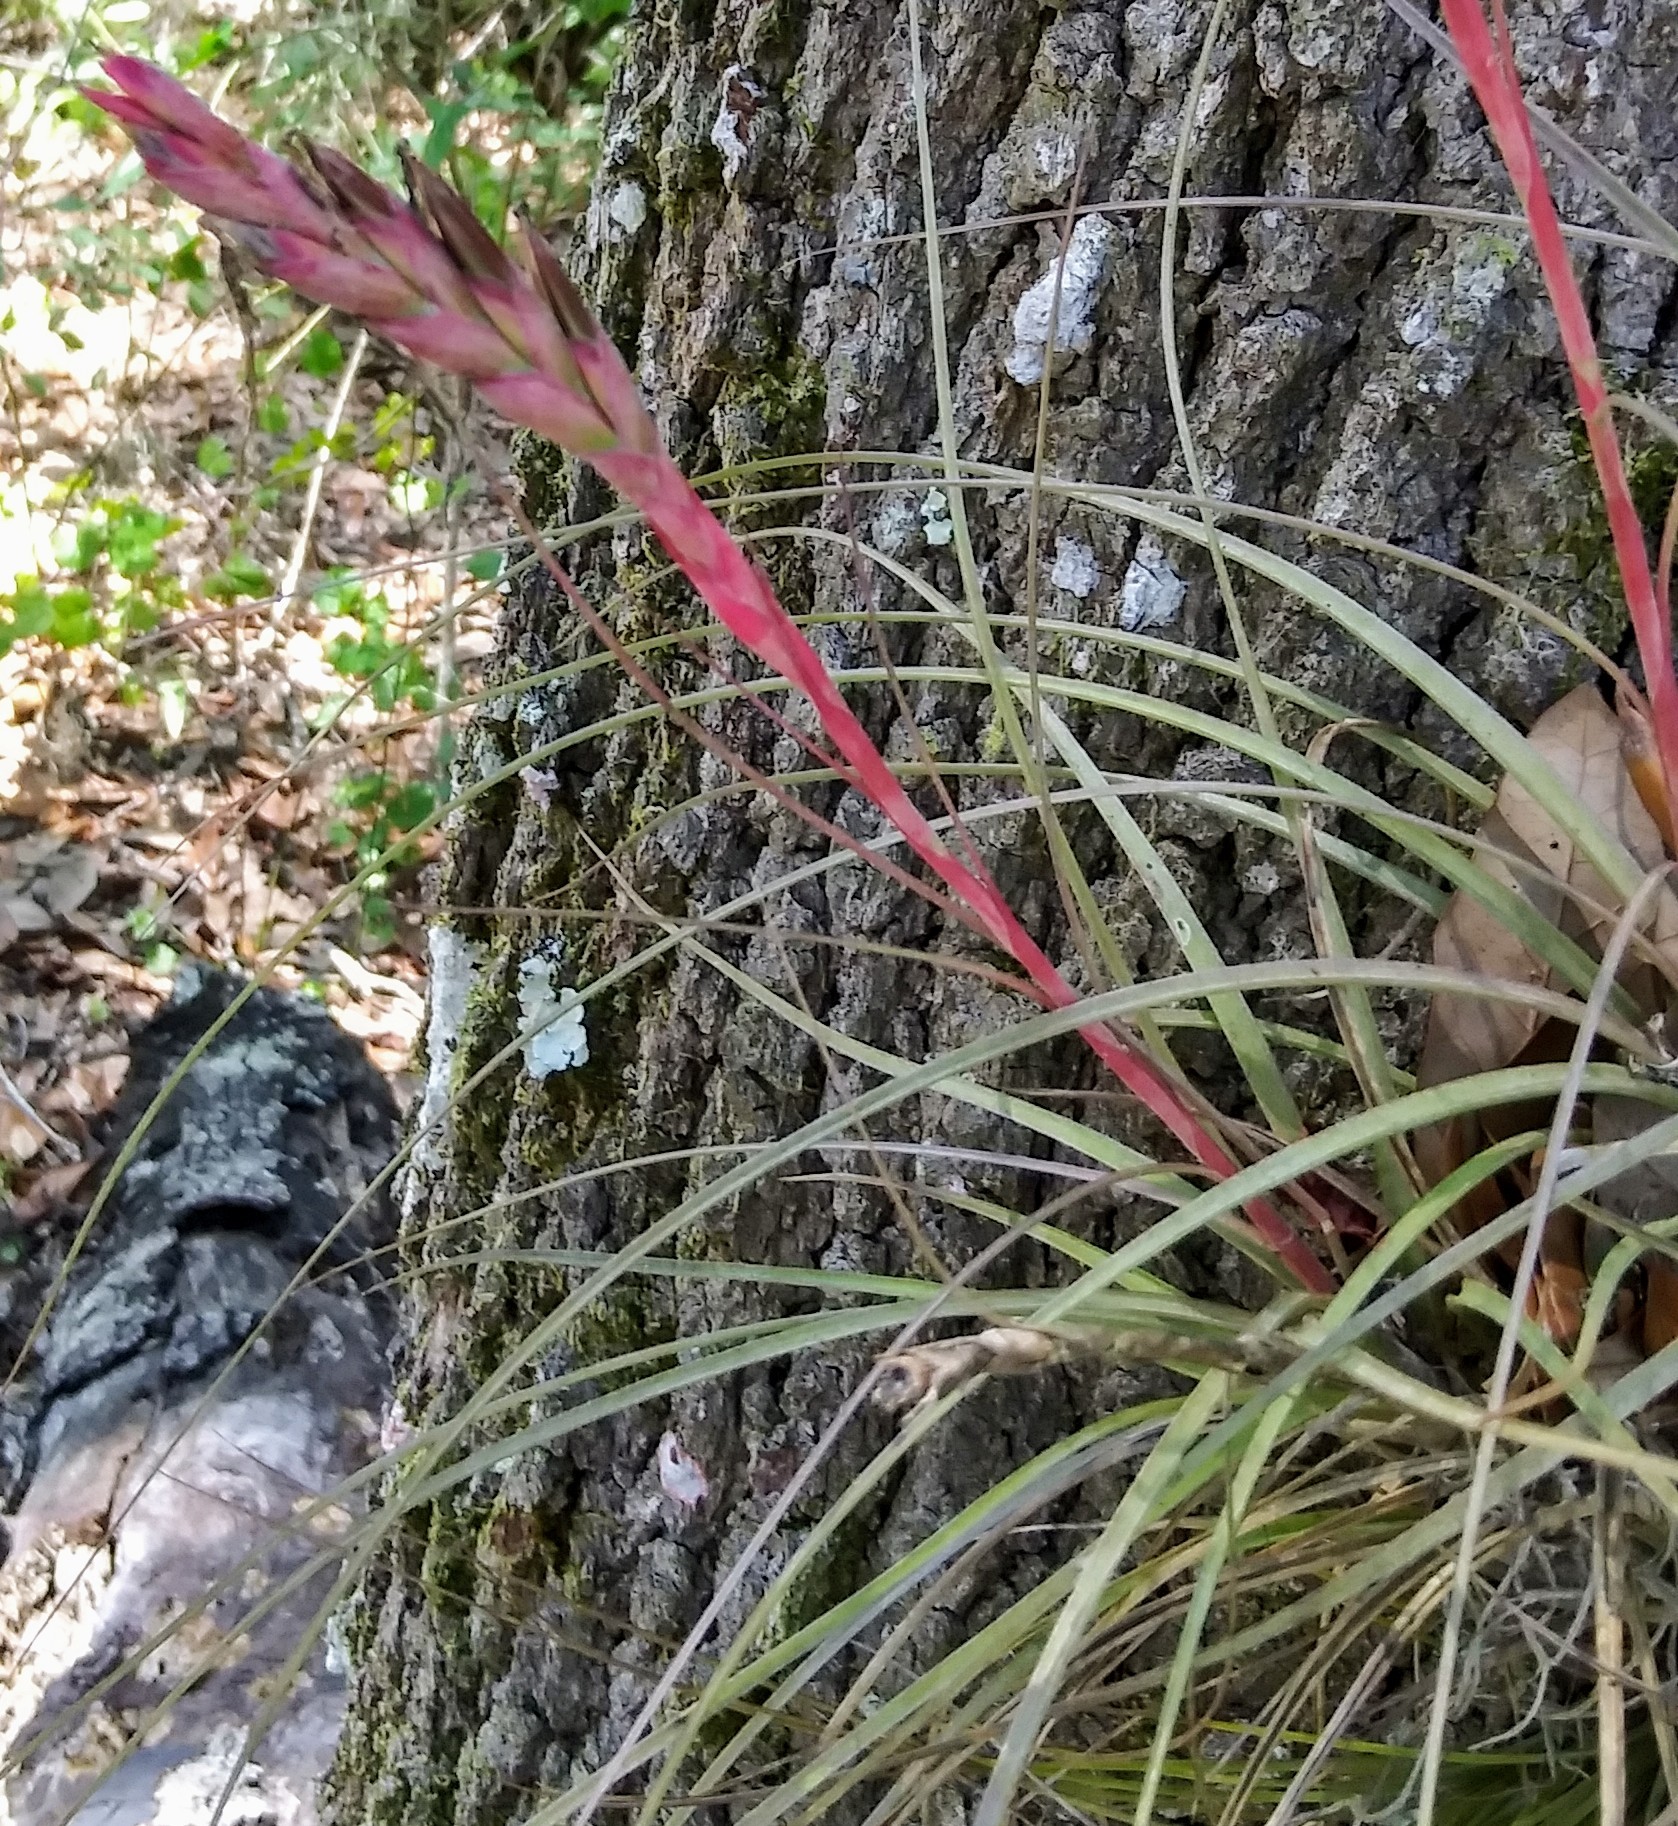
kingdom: Plantae
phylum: Tracheophyta
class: Liliopsida
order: Poales
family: Bromeliaceae
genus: Tillandsia
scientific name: Tillandsia simulata
